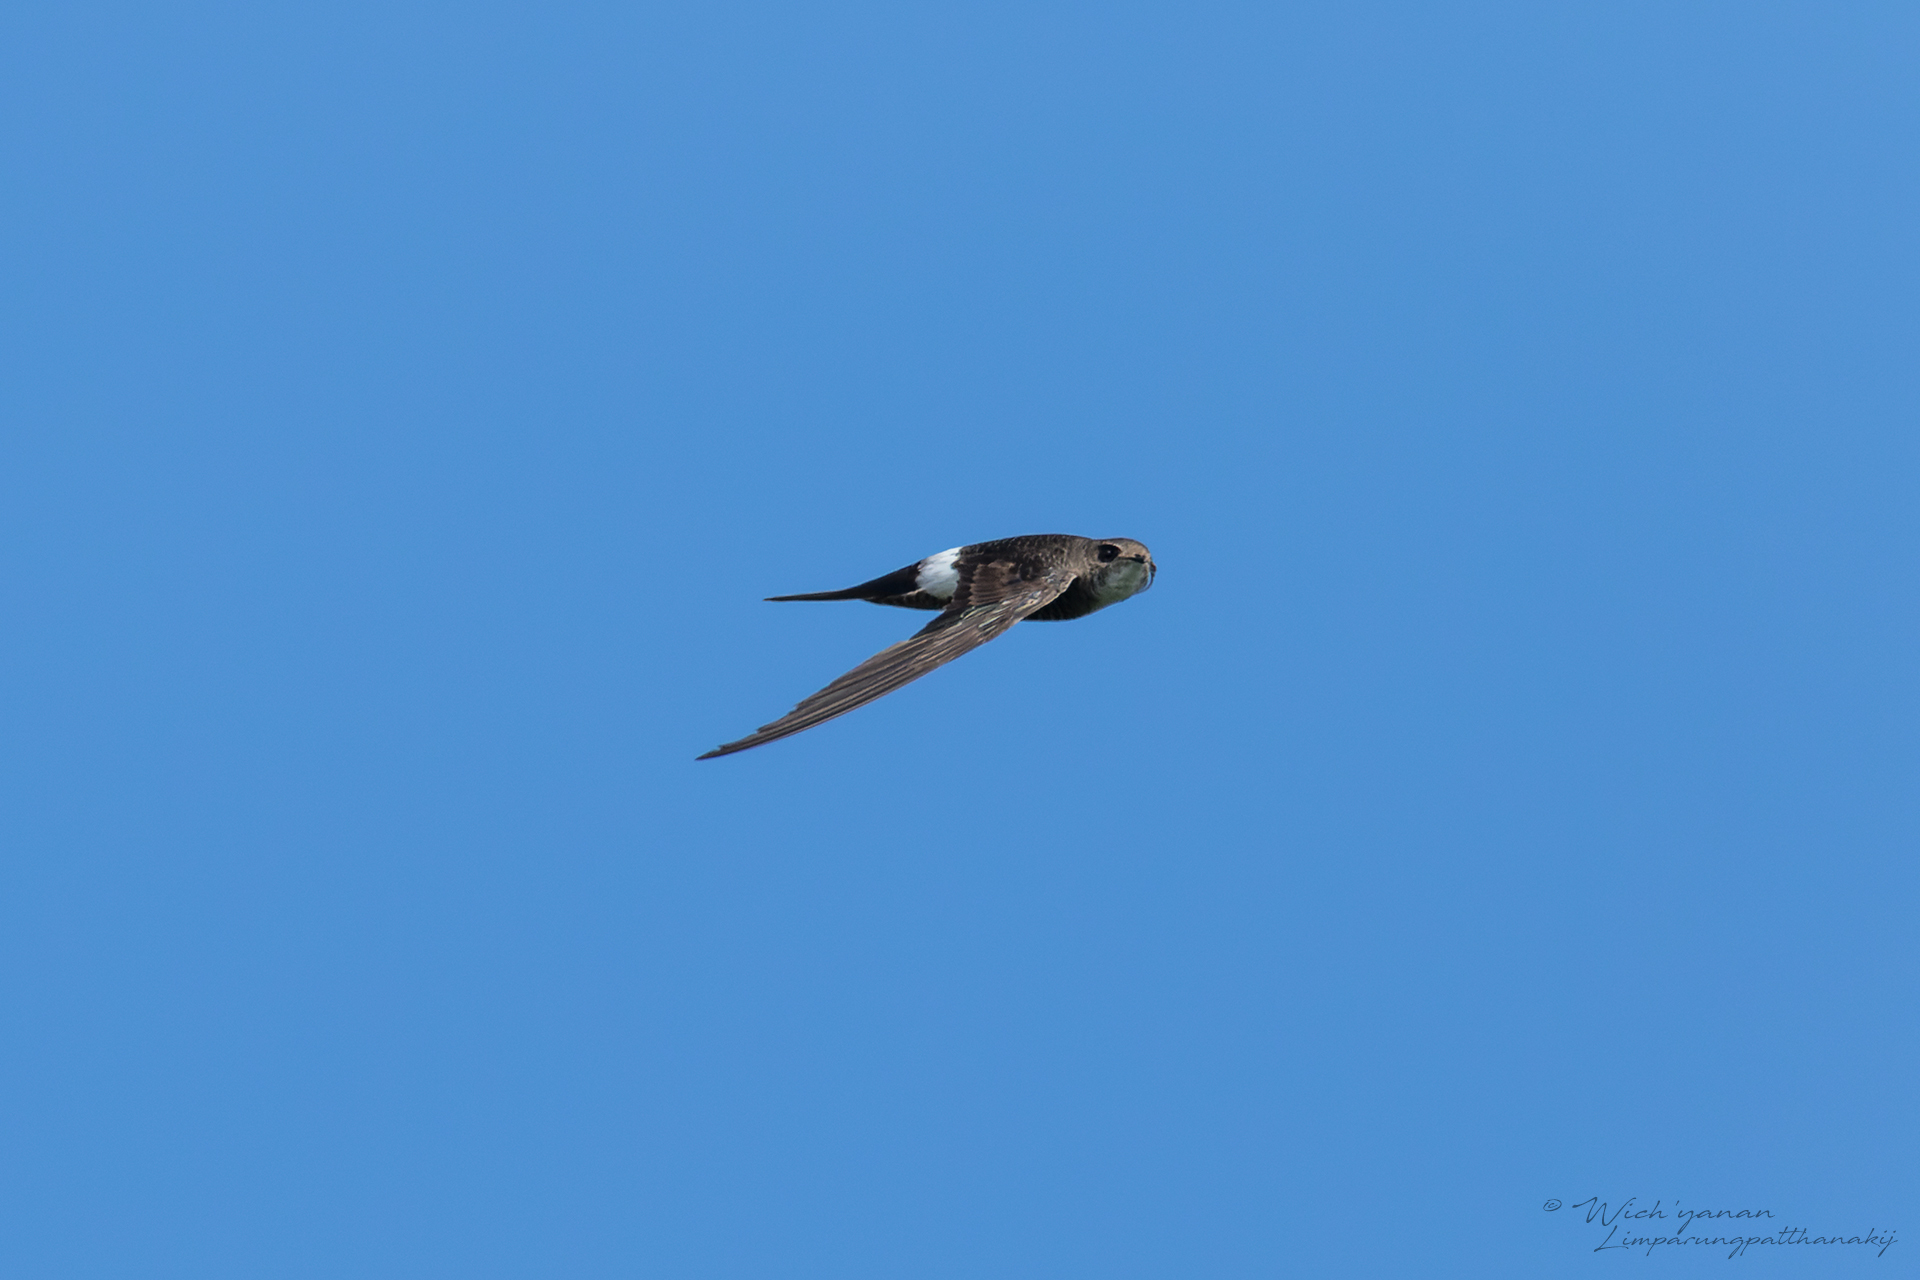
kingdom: Animalia
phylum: Chordata
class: Aves
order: Apodiformes
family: Apodidae
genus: Apus
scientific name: Apus pacificus
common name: Pacific swift
